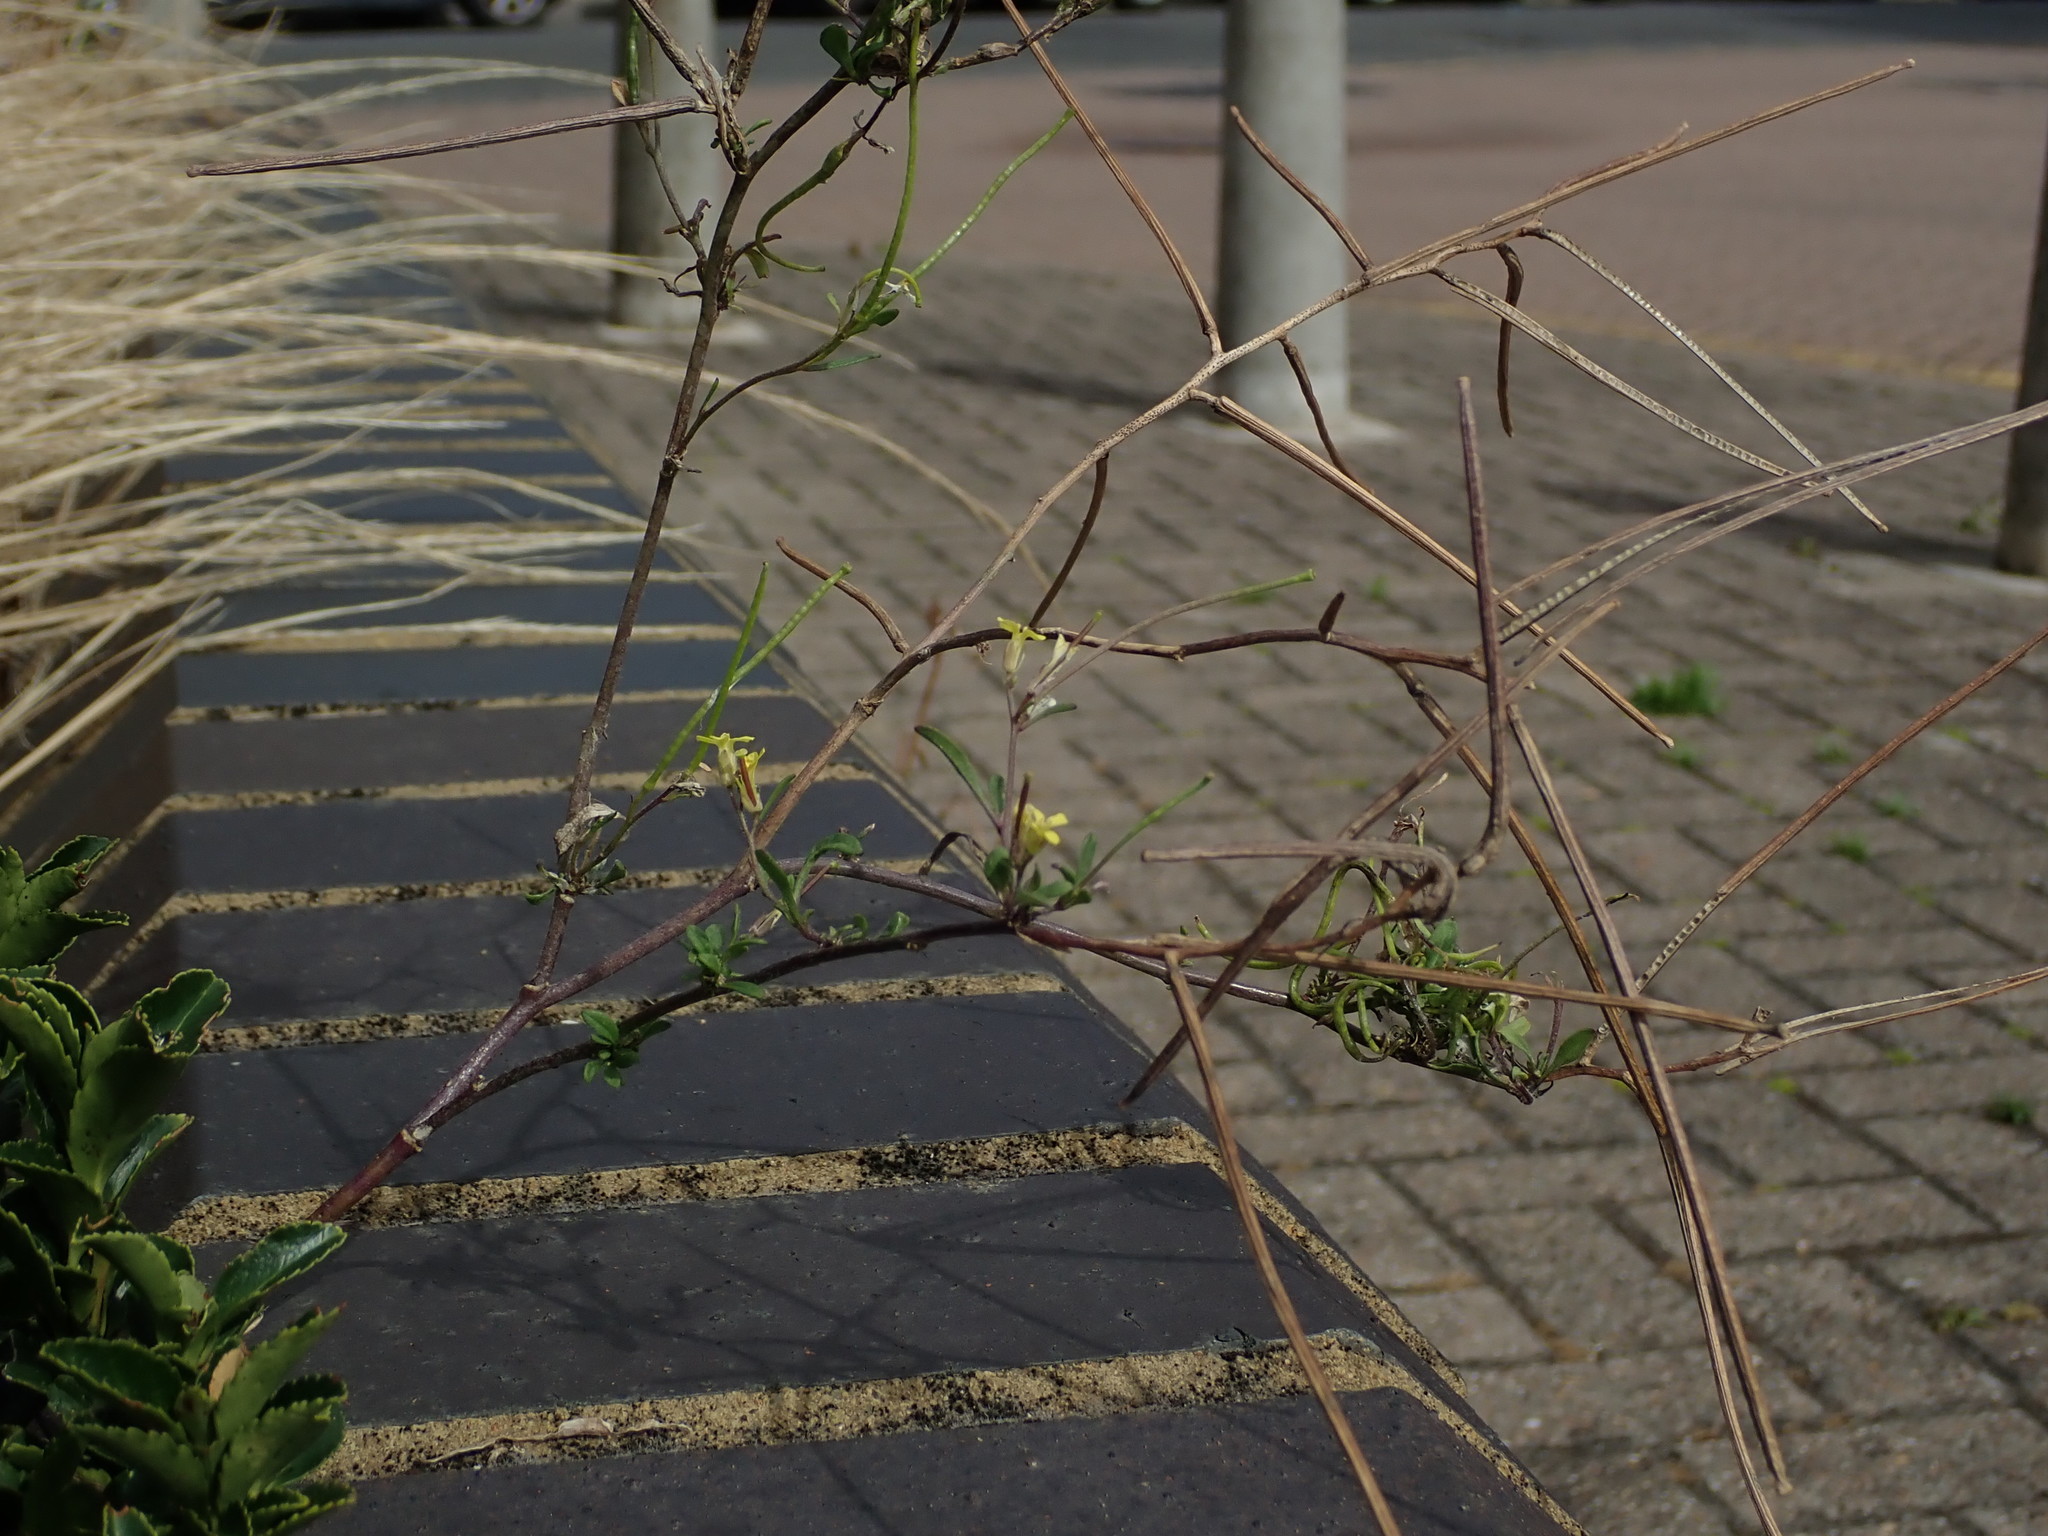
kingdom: Plantae
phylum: Tracheophyta
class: Magnoliopsida
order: Brassicales
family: Brassicaceae
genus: Sisymbrium
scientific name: Sisymbrium orientale
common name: Eastern rocket
